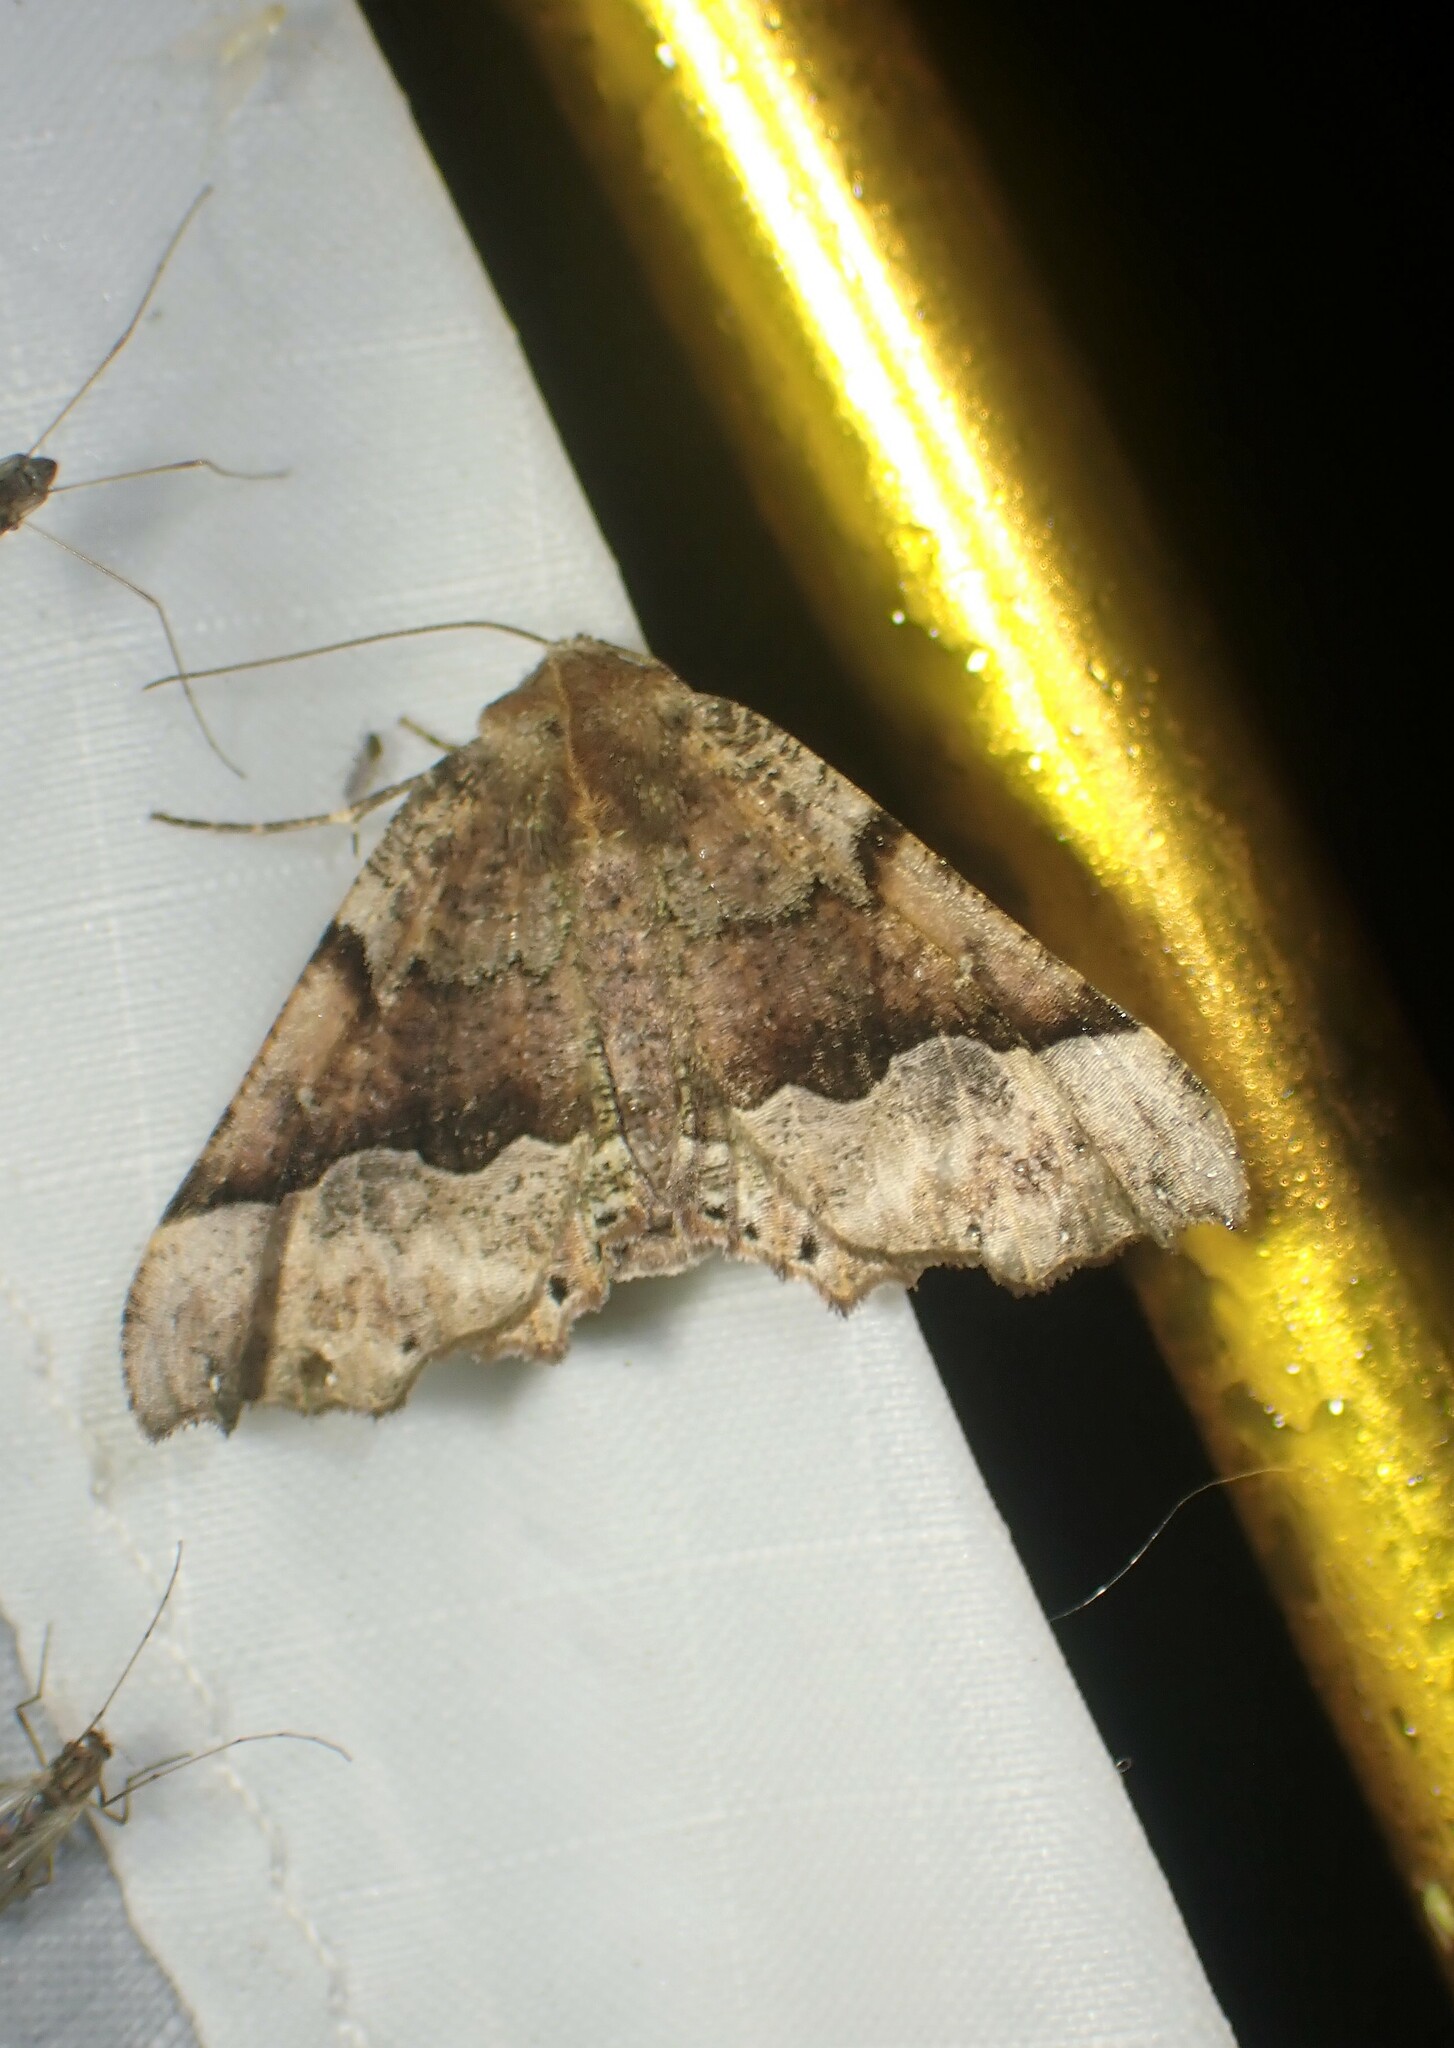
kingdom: Animalia
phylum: Arthropoda
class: Insecta
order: Lepidoptera
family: Geometridae
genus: Pero
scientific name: Pero morrisonaria
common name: Morrison's pero
